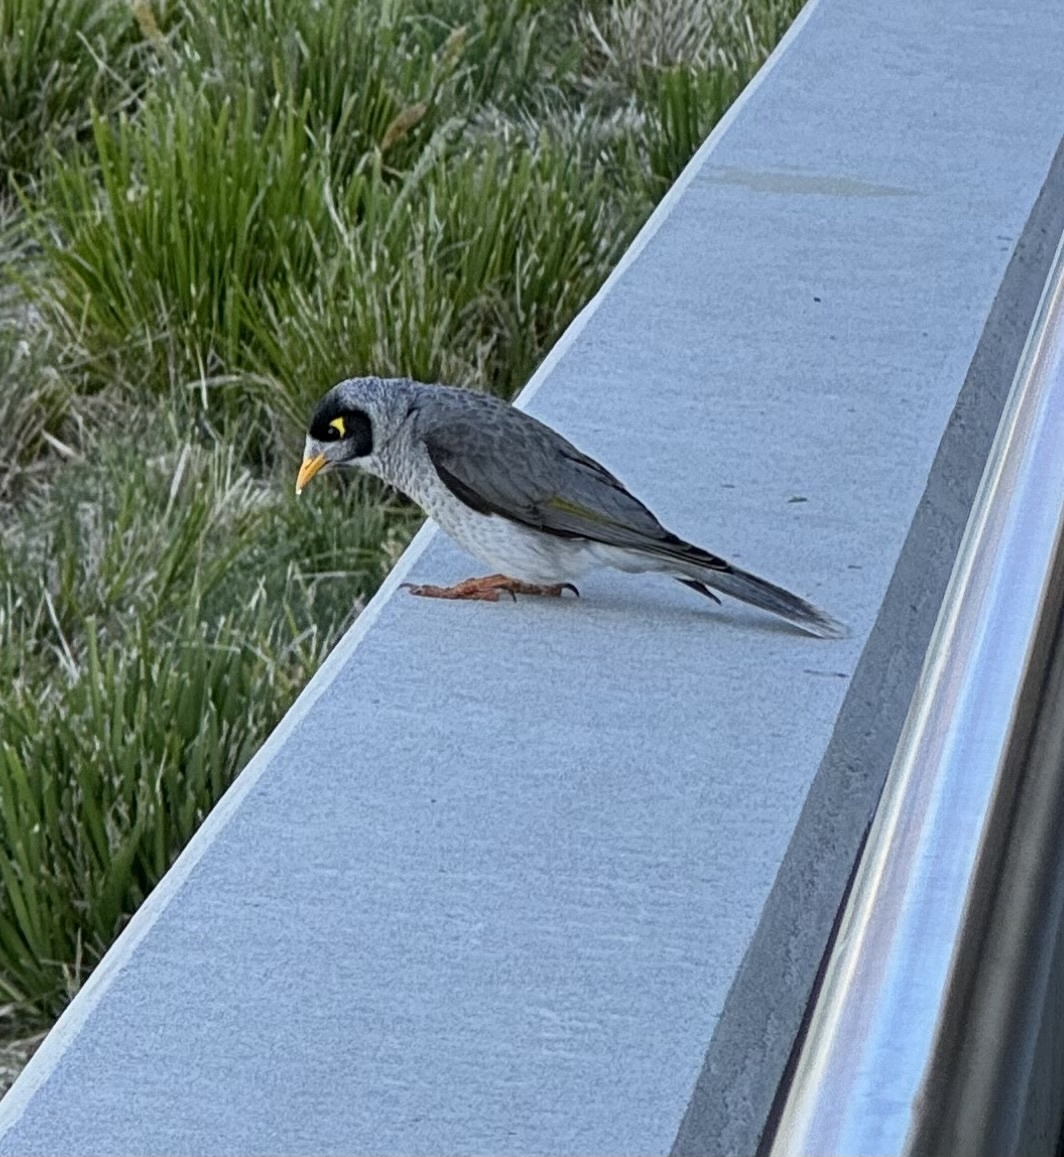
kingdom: Animalia
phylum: Chordata
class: Aves
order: Passeriformes
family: Meliphagidae
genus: Manorina
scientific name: Manorina melanocephala
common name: Noisy miner
